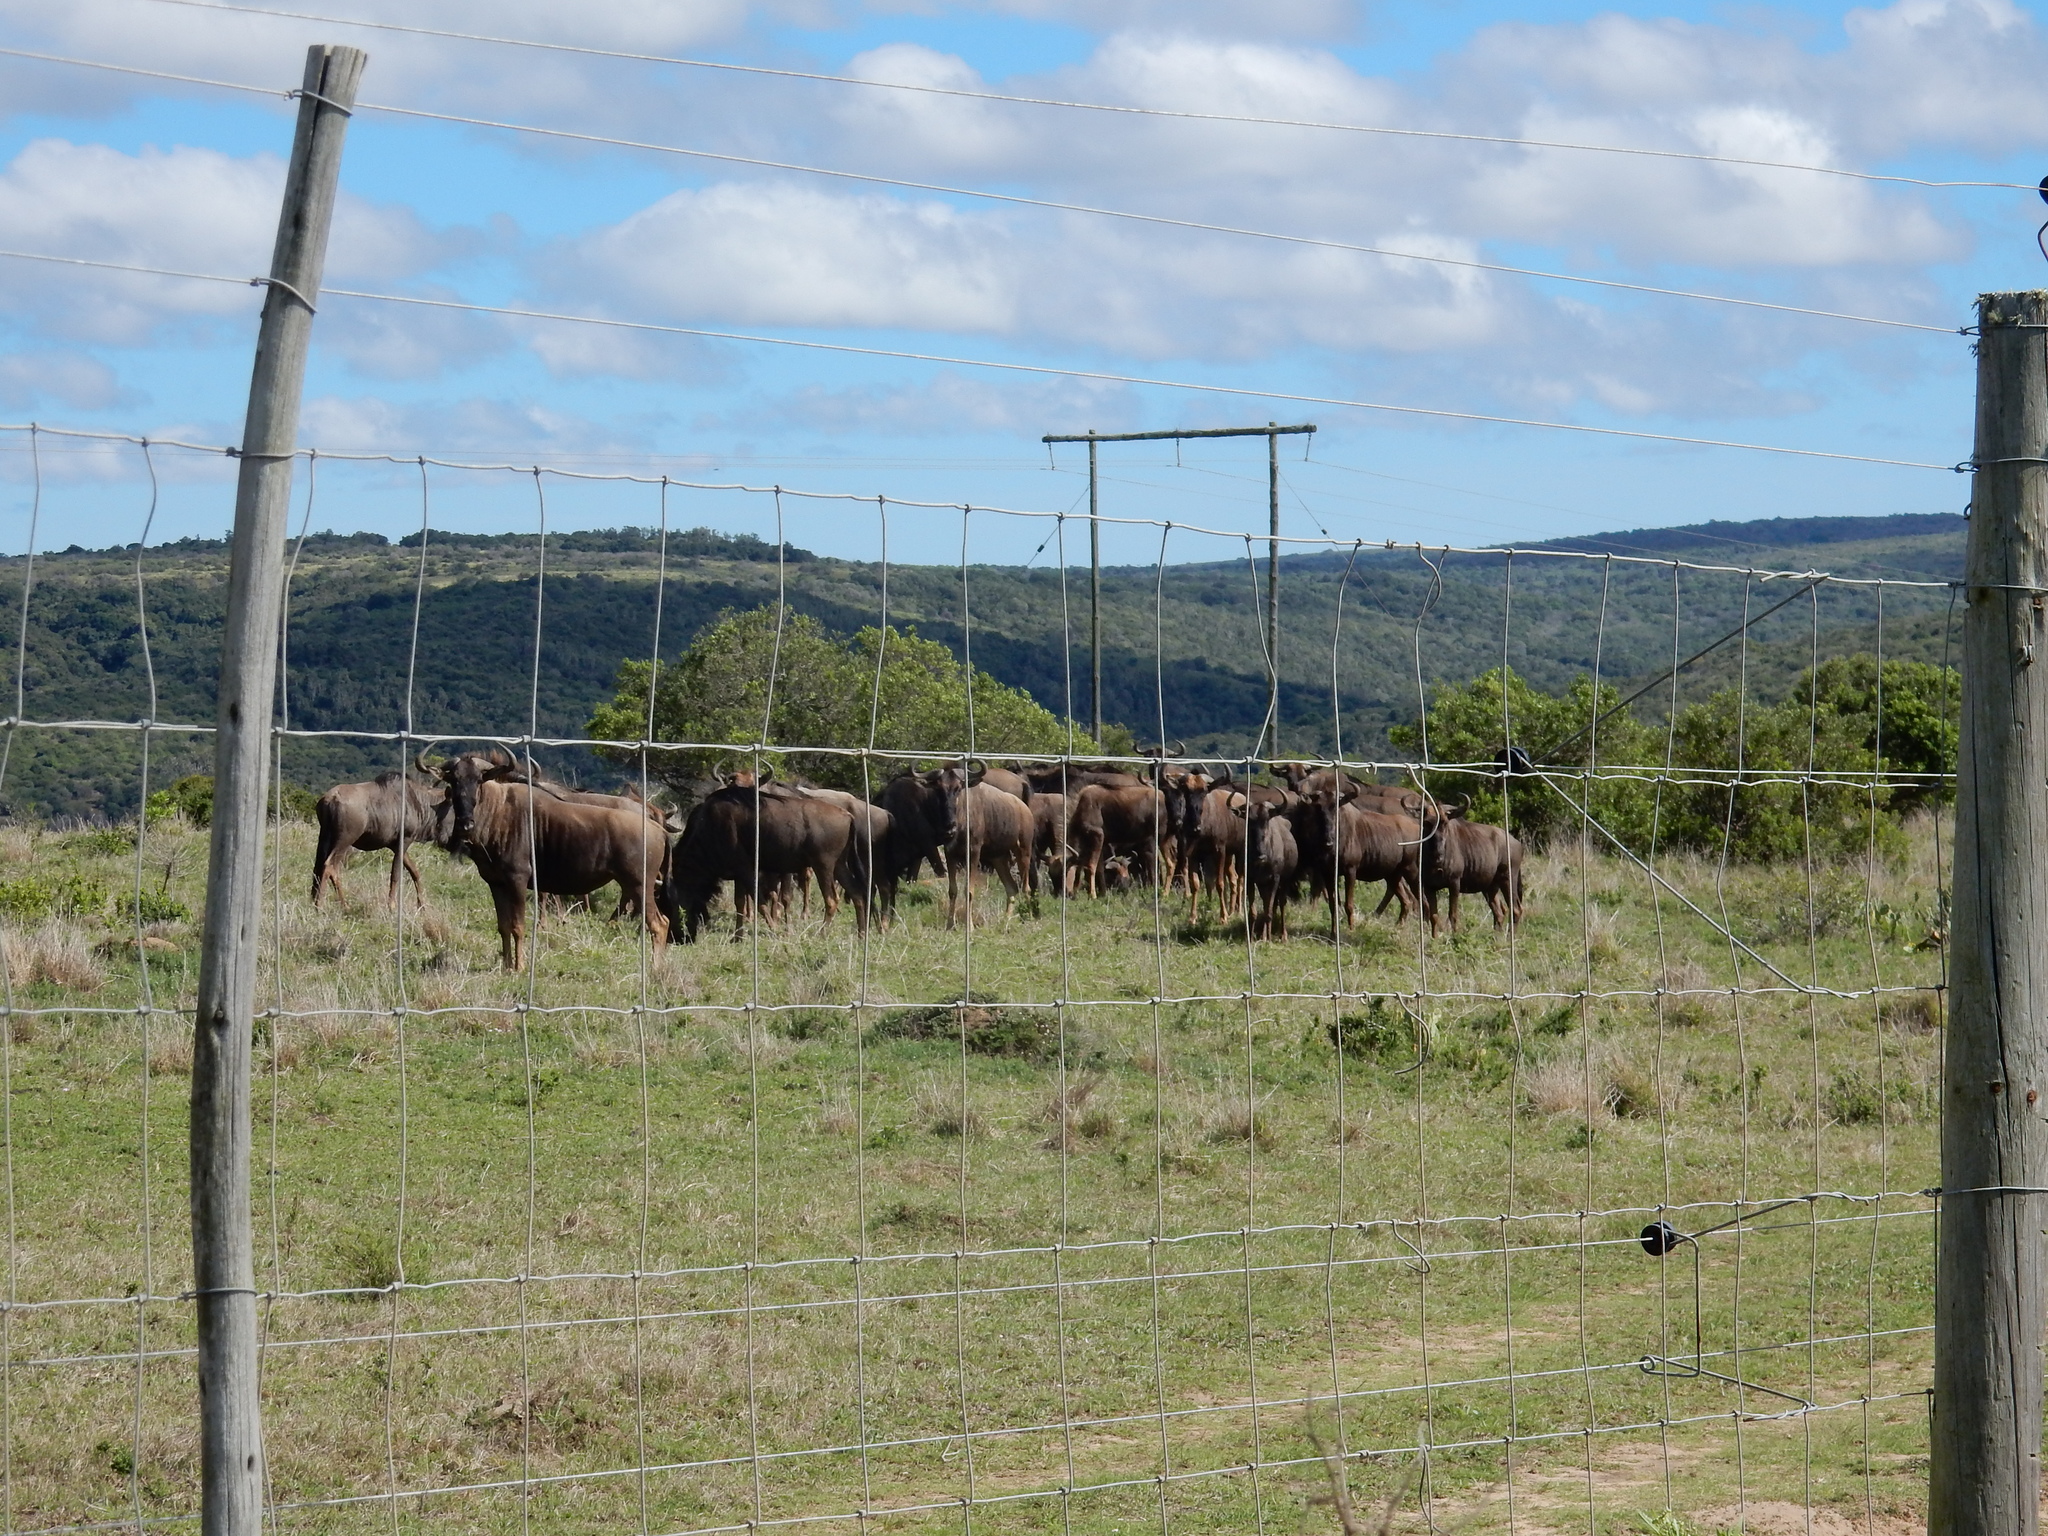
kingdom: Animalia
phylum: Chordata
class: Mammalia
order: Artiodactyla
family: Bovidae
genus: Connochaetes
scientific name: Connochaetes taurinus
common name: Blue wildebeest
